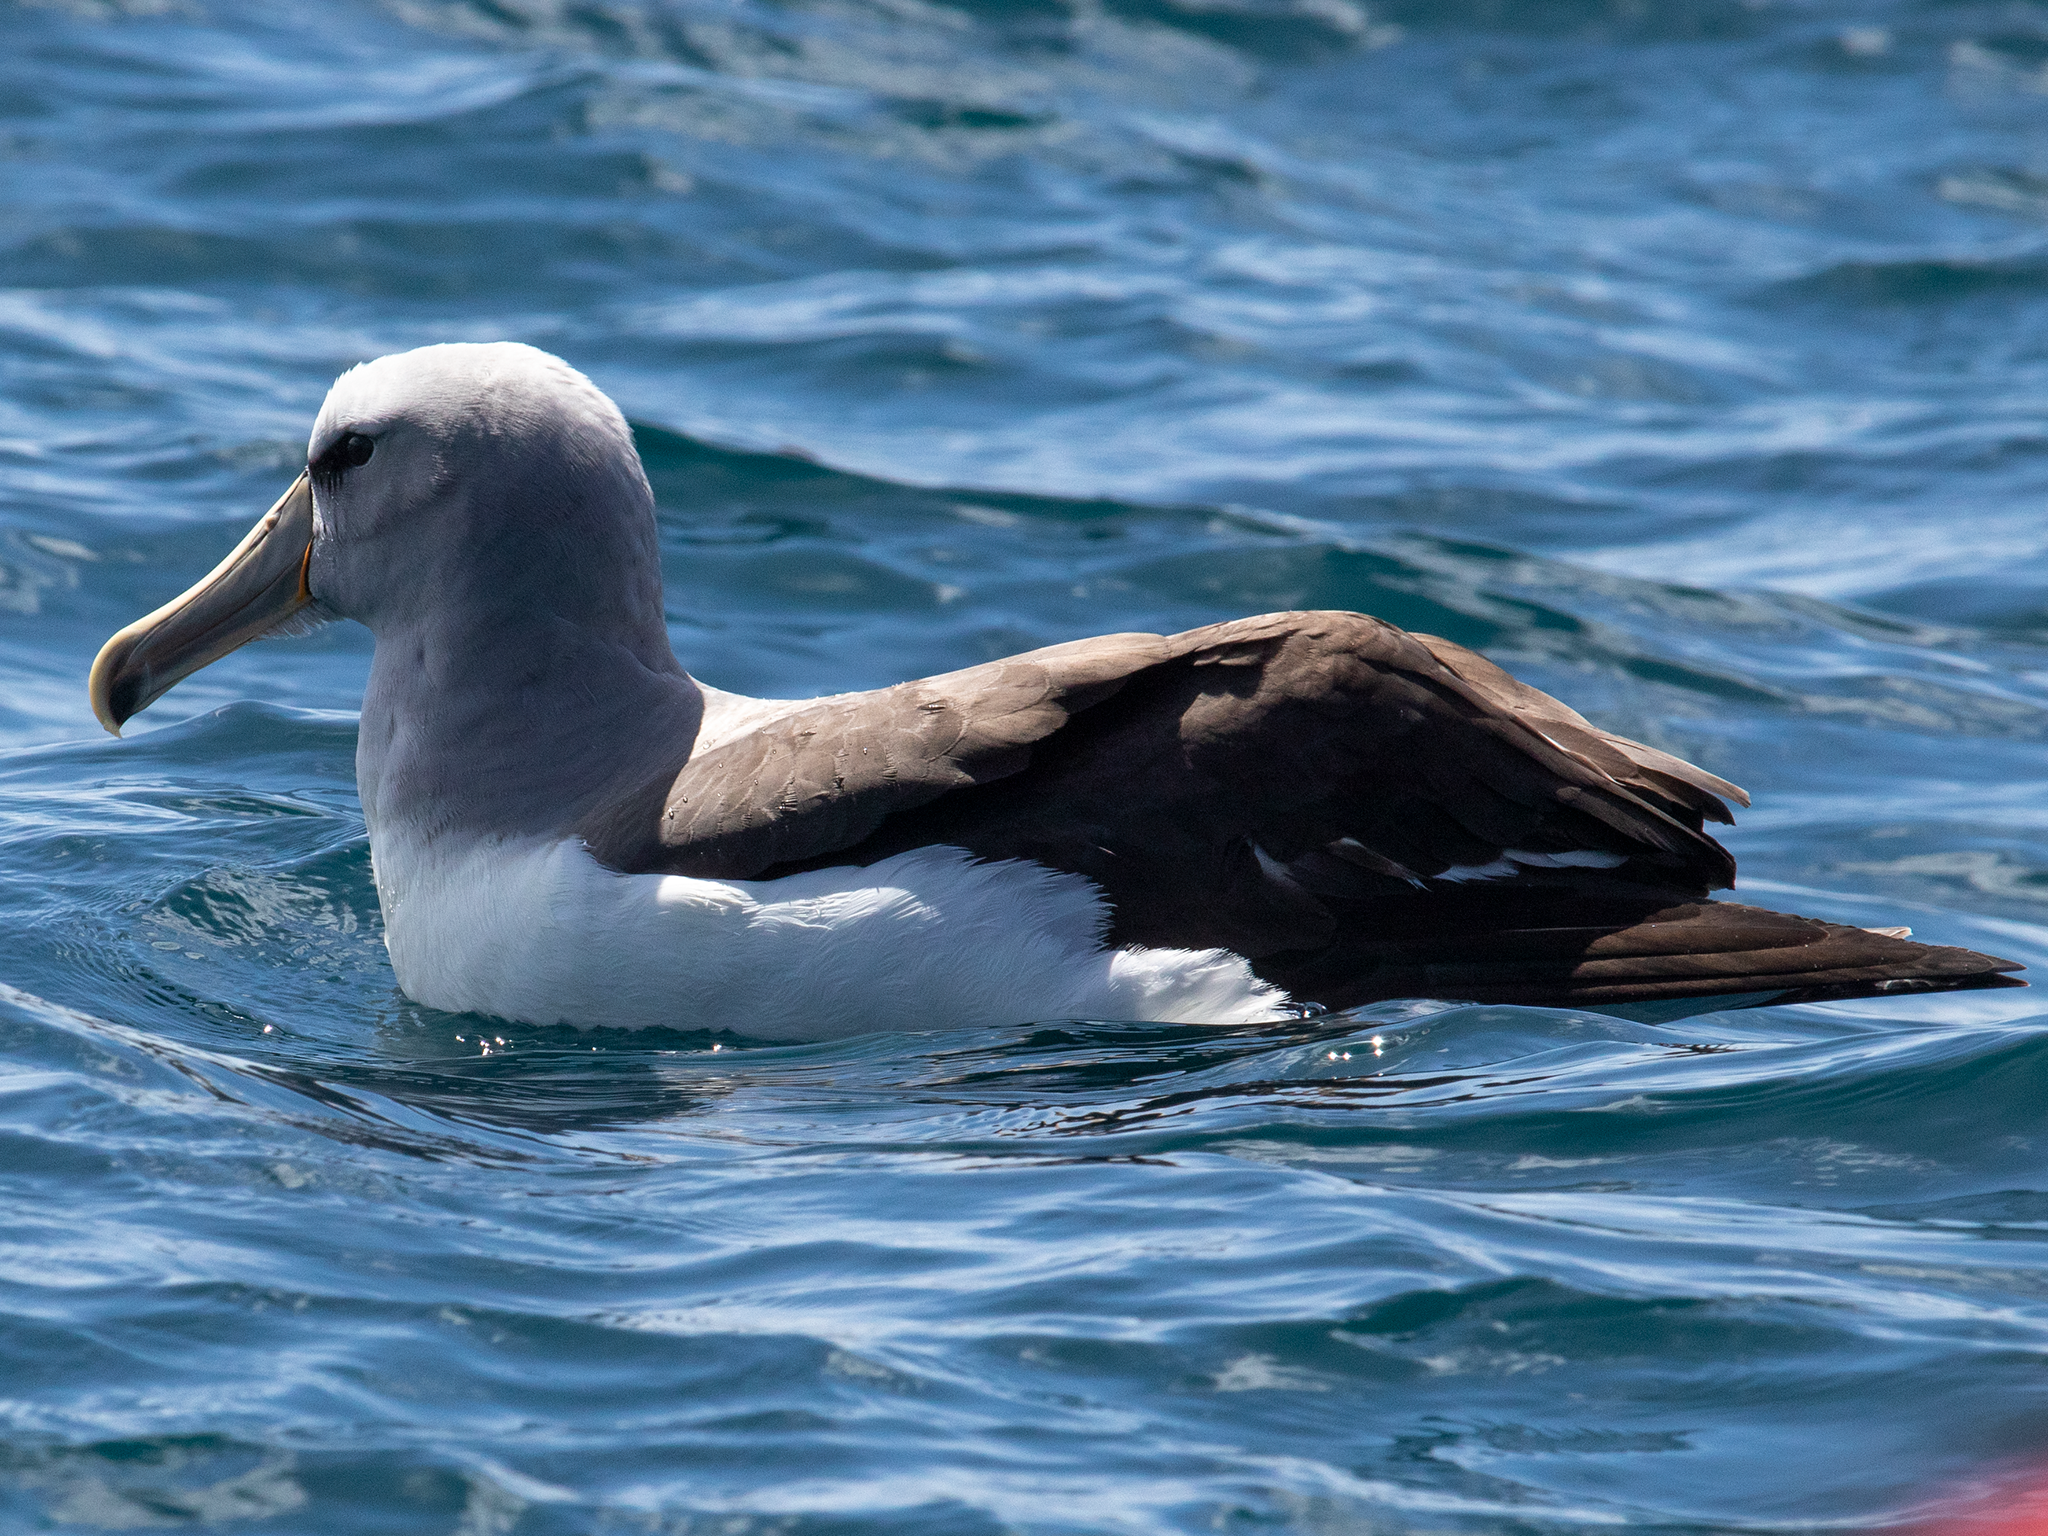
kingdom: Animalia
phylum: Chordata
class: Aves
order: Procellariiformes
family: Diomedeidae
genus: Thalassarche
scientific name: Thalassarche salvini
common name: Salvin's albatross
